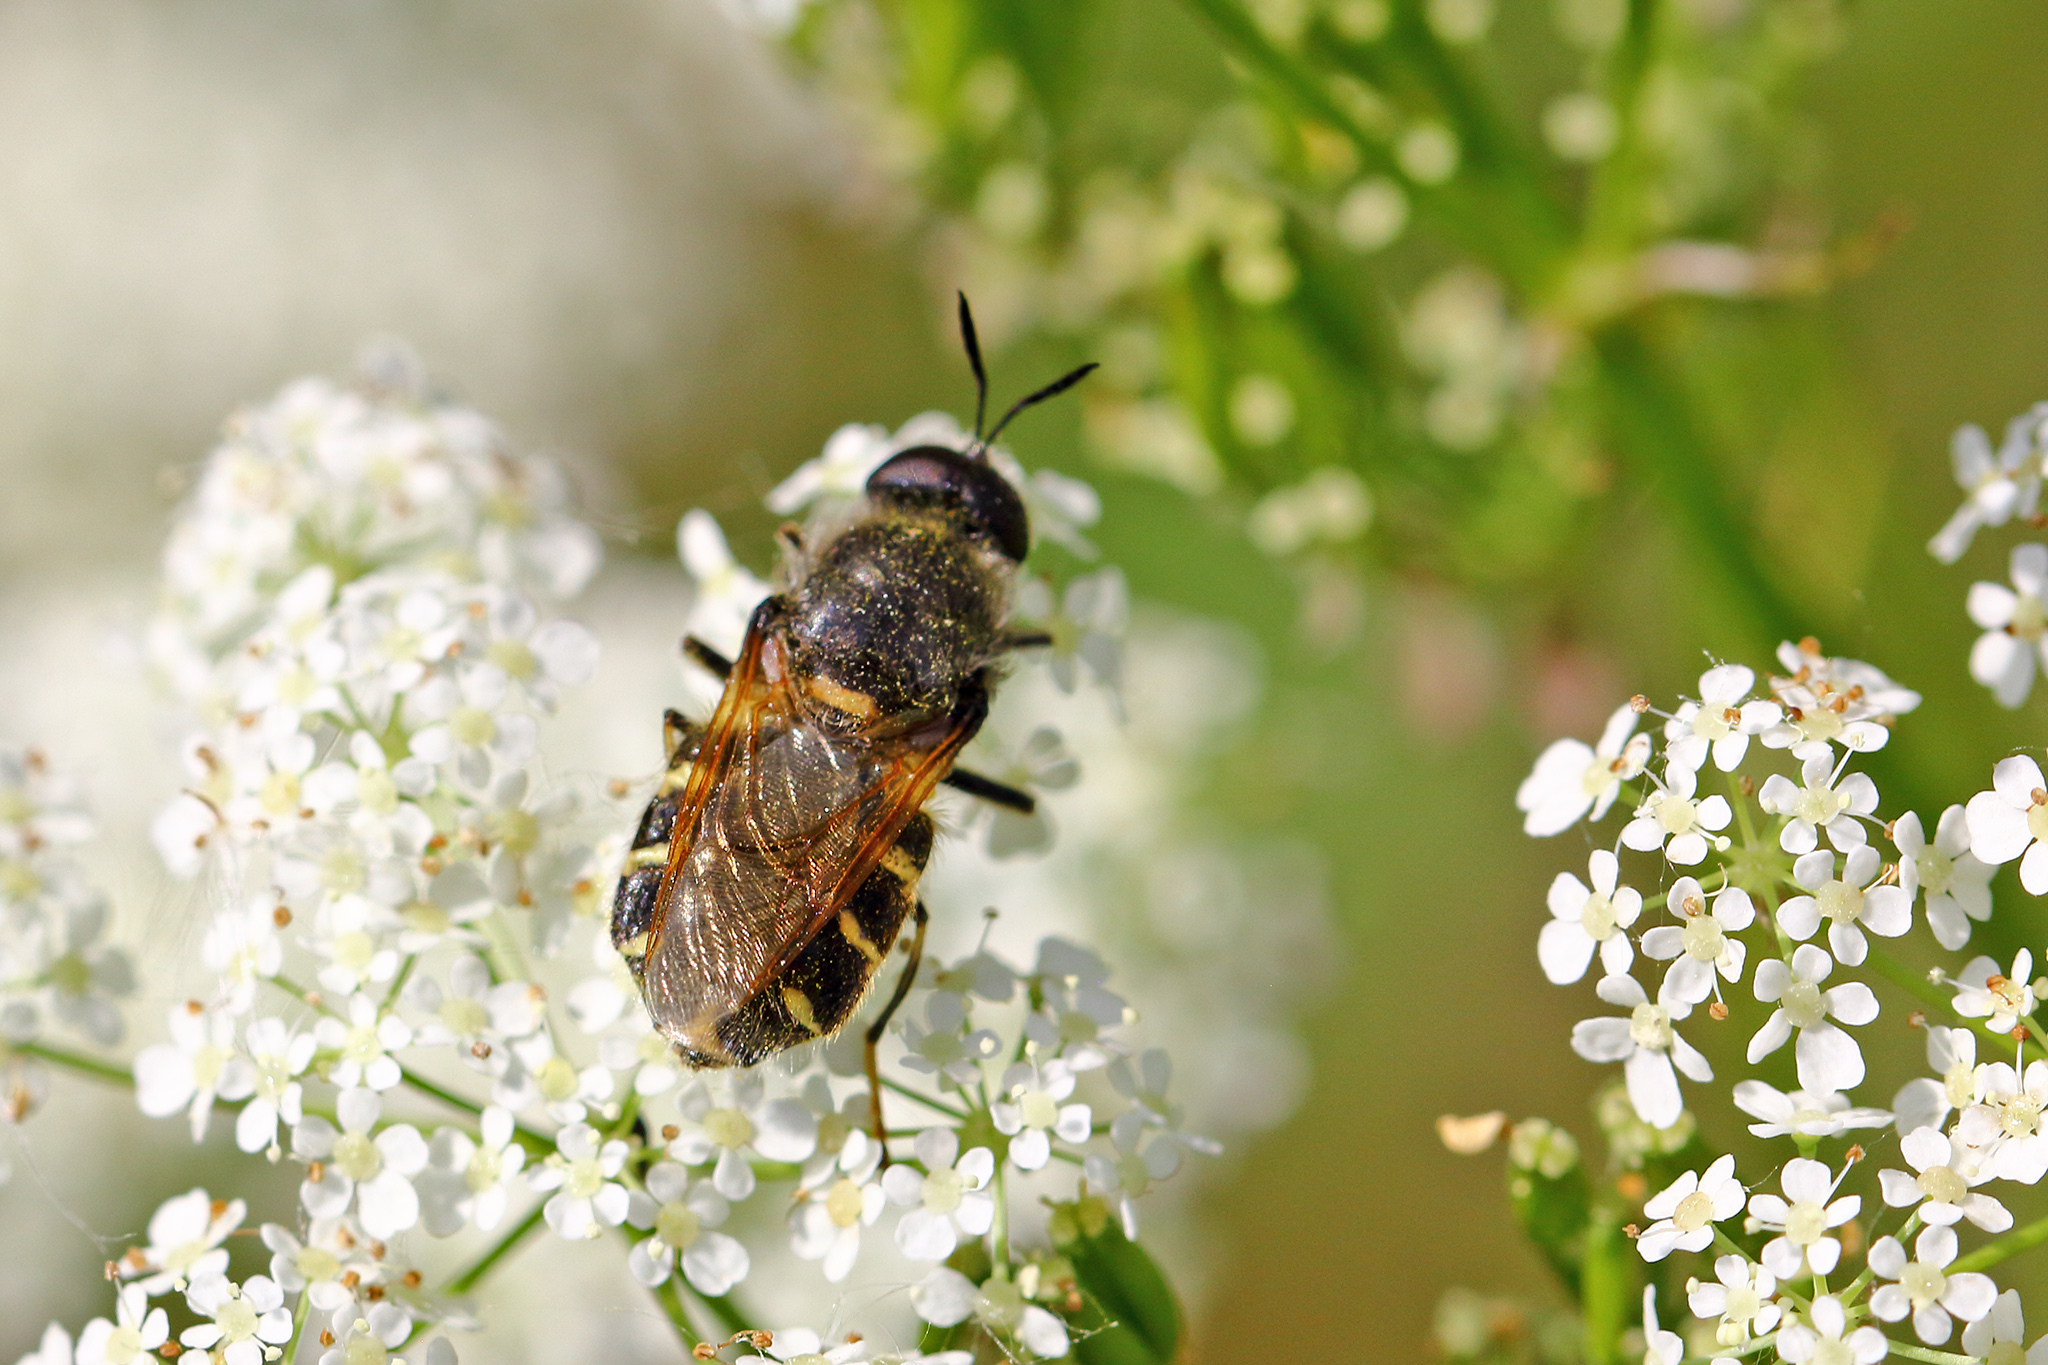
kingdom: Animalia
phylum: Arthropoda
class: Insecta
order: Diptera
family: Stratiomyidae
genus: Stratiomys
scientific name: Stratiomys singularior
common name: Flecked general
